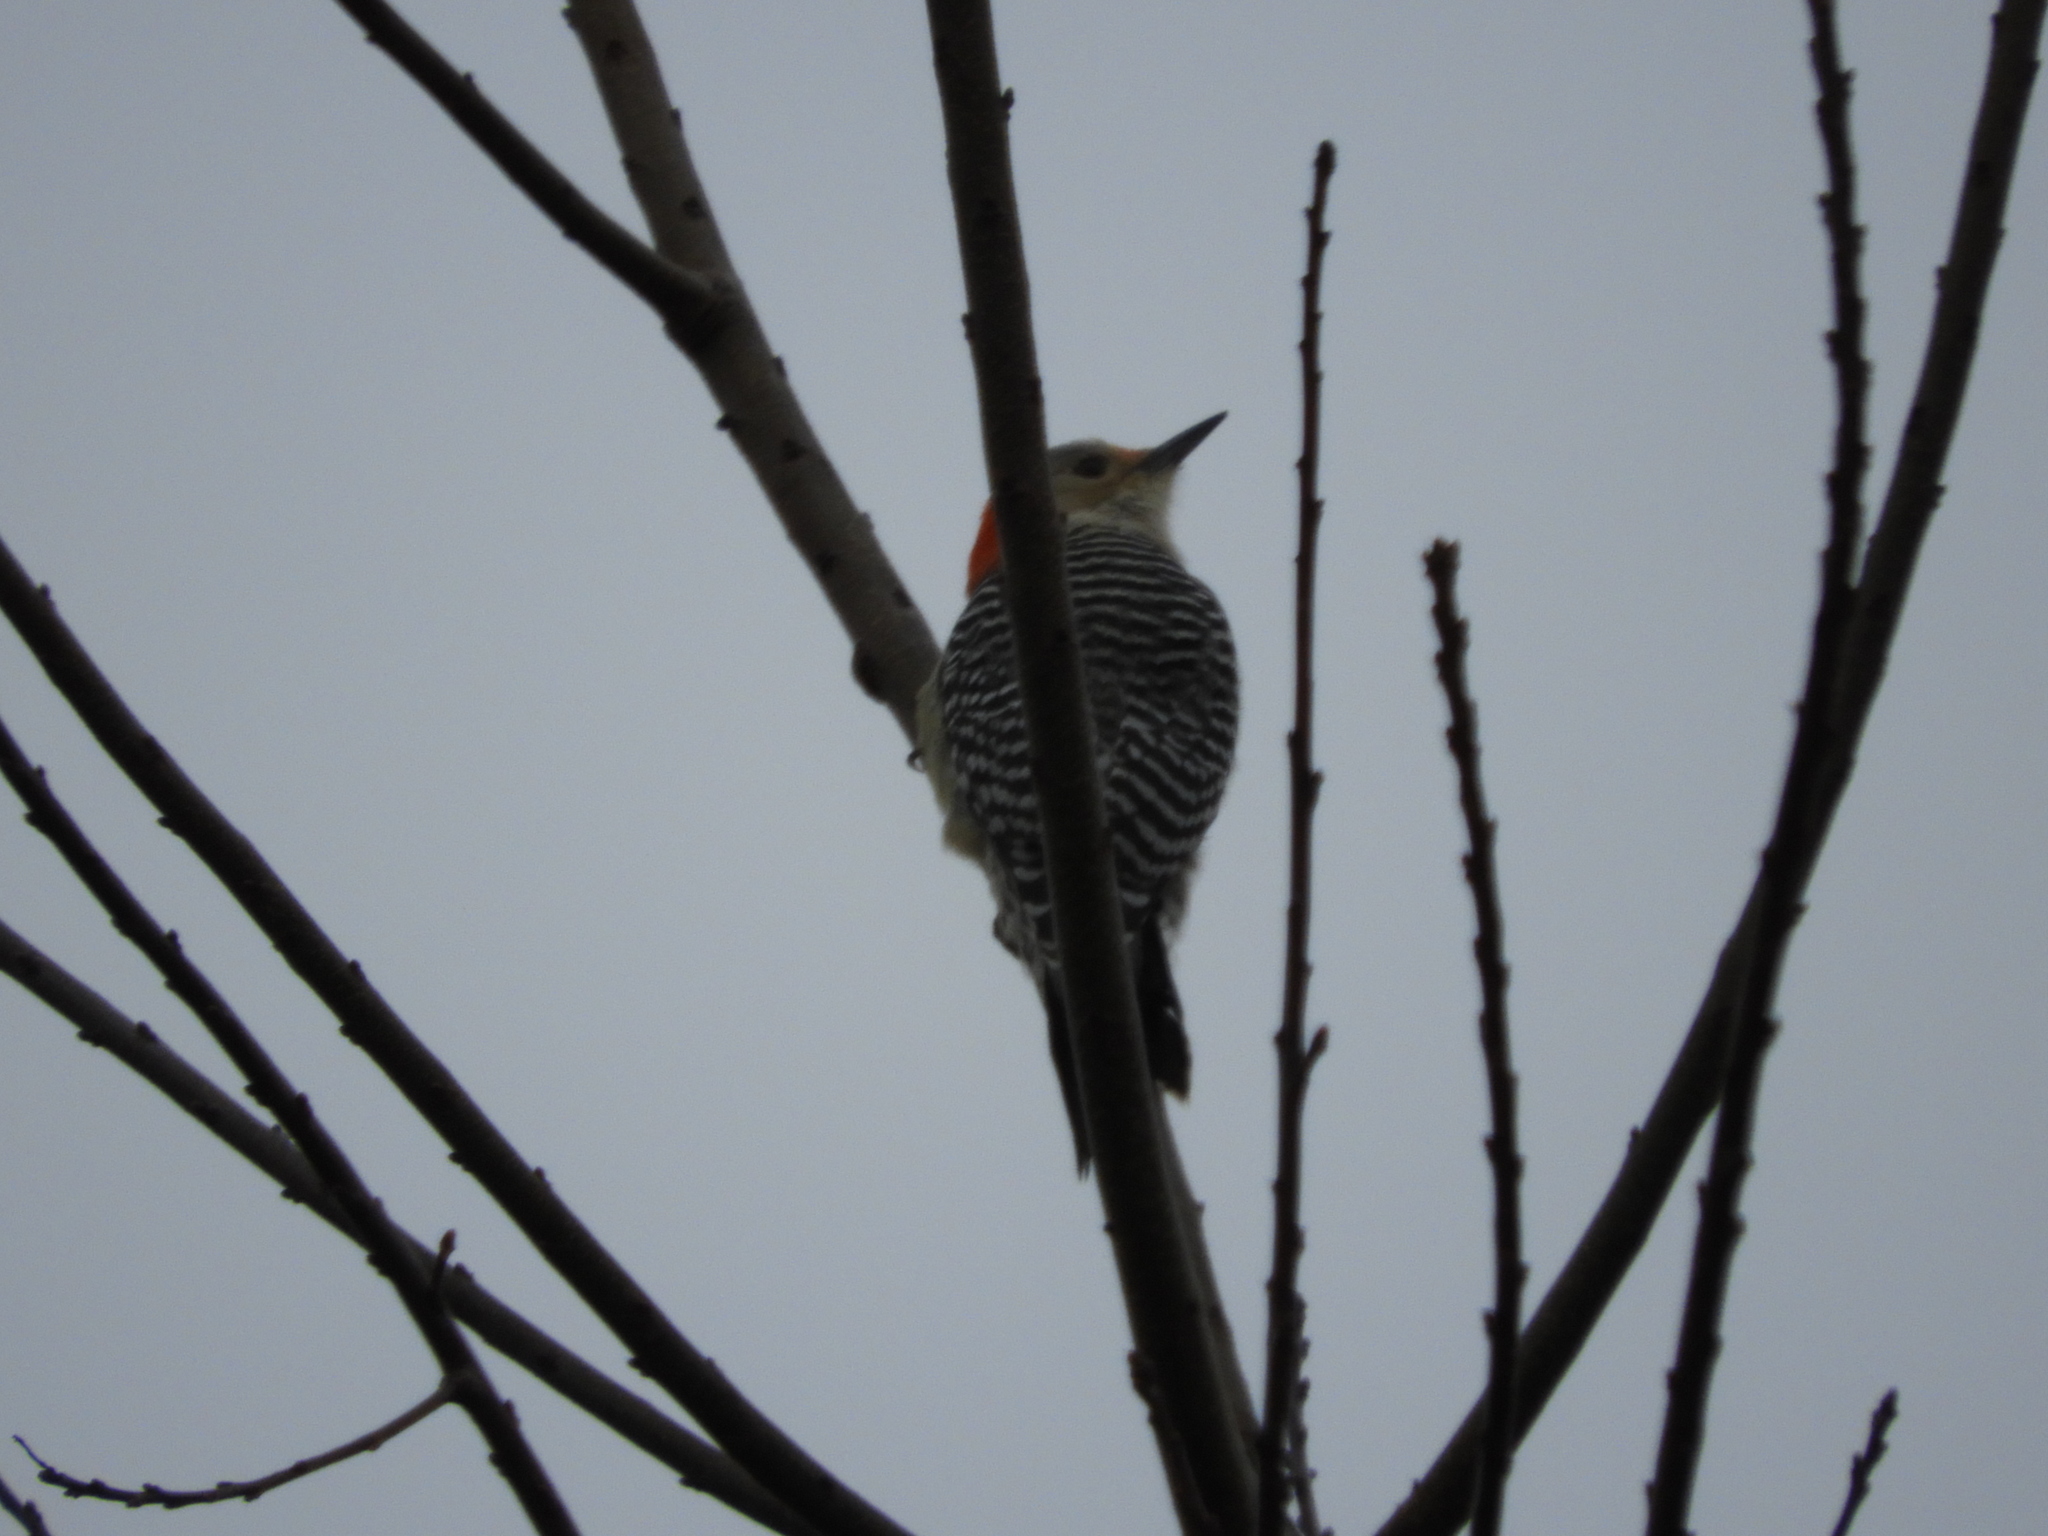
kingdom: Animalia
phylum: Chordata
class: Aves
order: Piciformes
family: Picidae
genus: Melanerpes
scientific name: Melanerpes carolinus
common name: Red-bellied woodpecker
